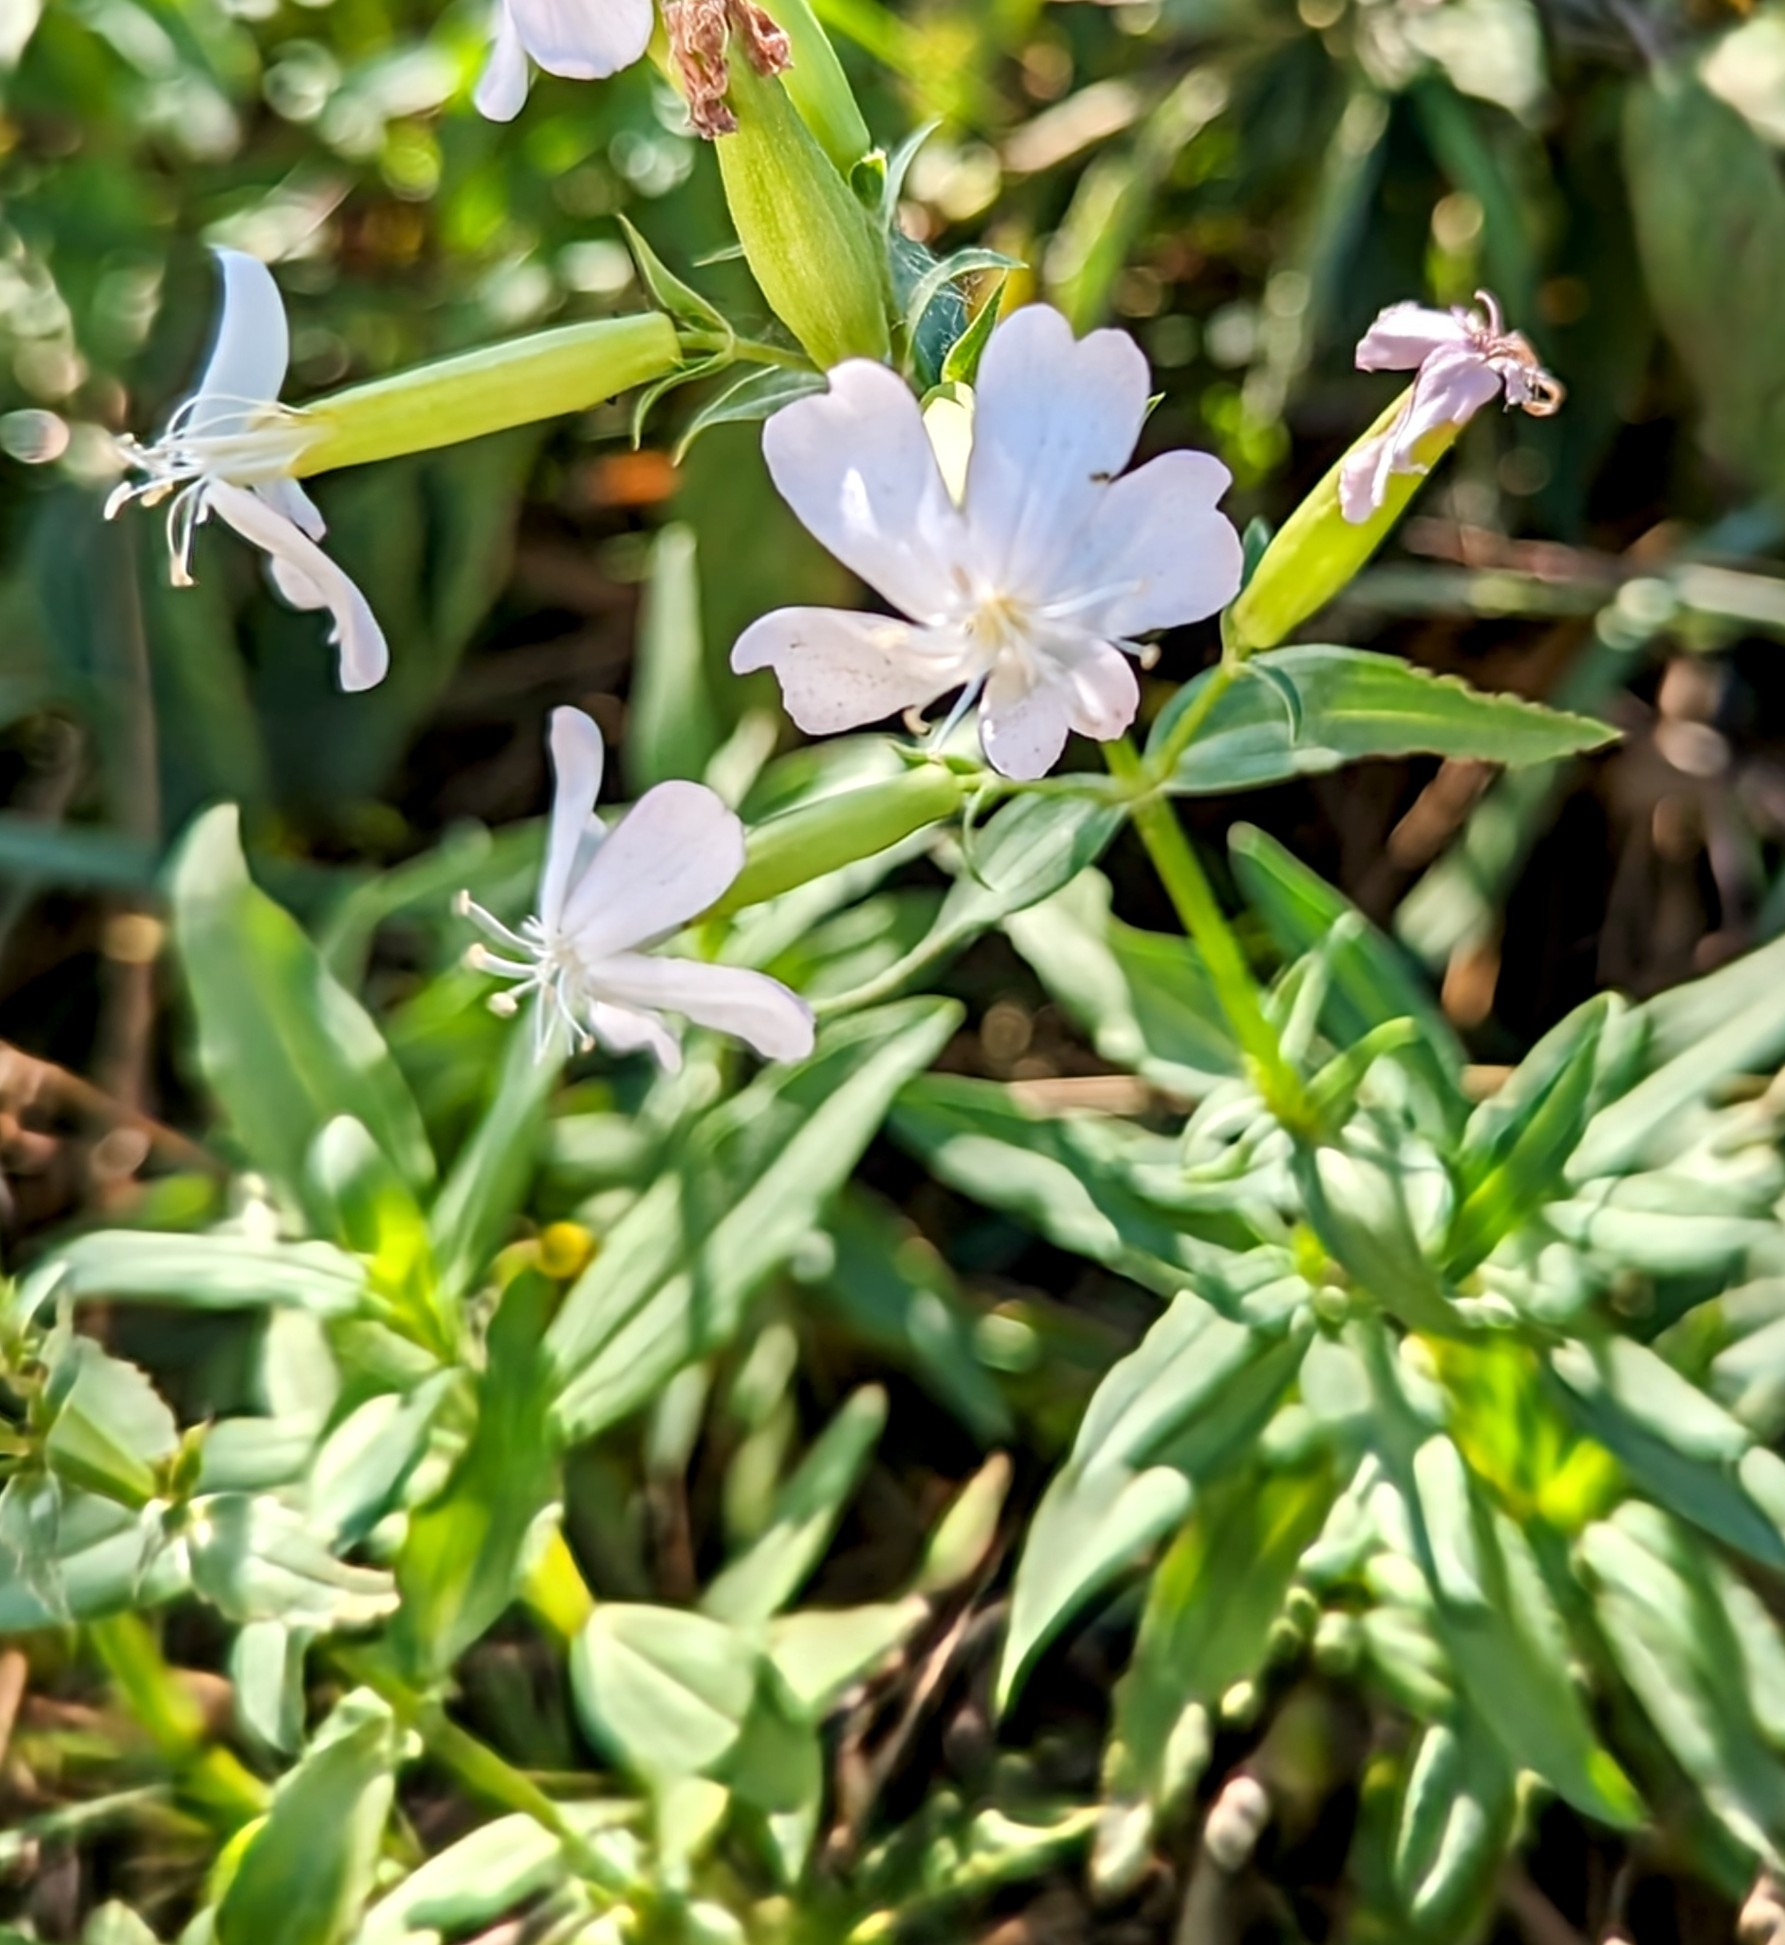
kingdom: Plantae
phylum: Tracheophyta
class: Magnoliopsida
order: Caryophyllales
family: Caryophyllaceae
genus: Saponaria
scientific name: Saponaria officinalis
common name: Soapwort
